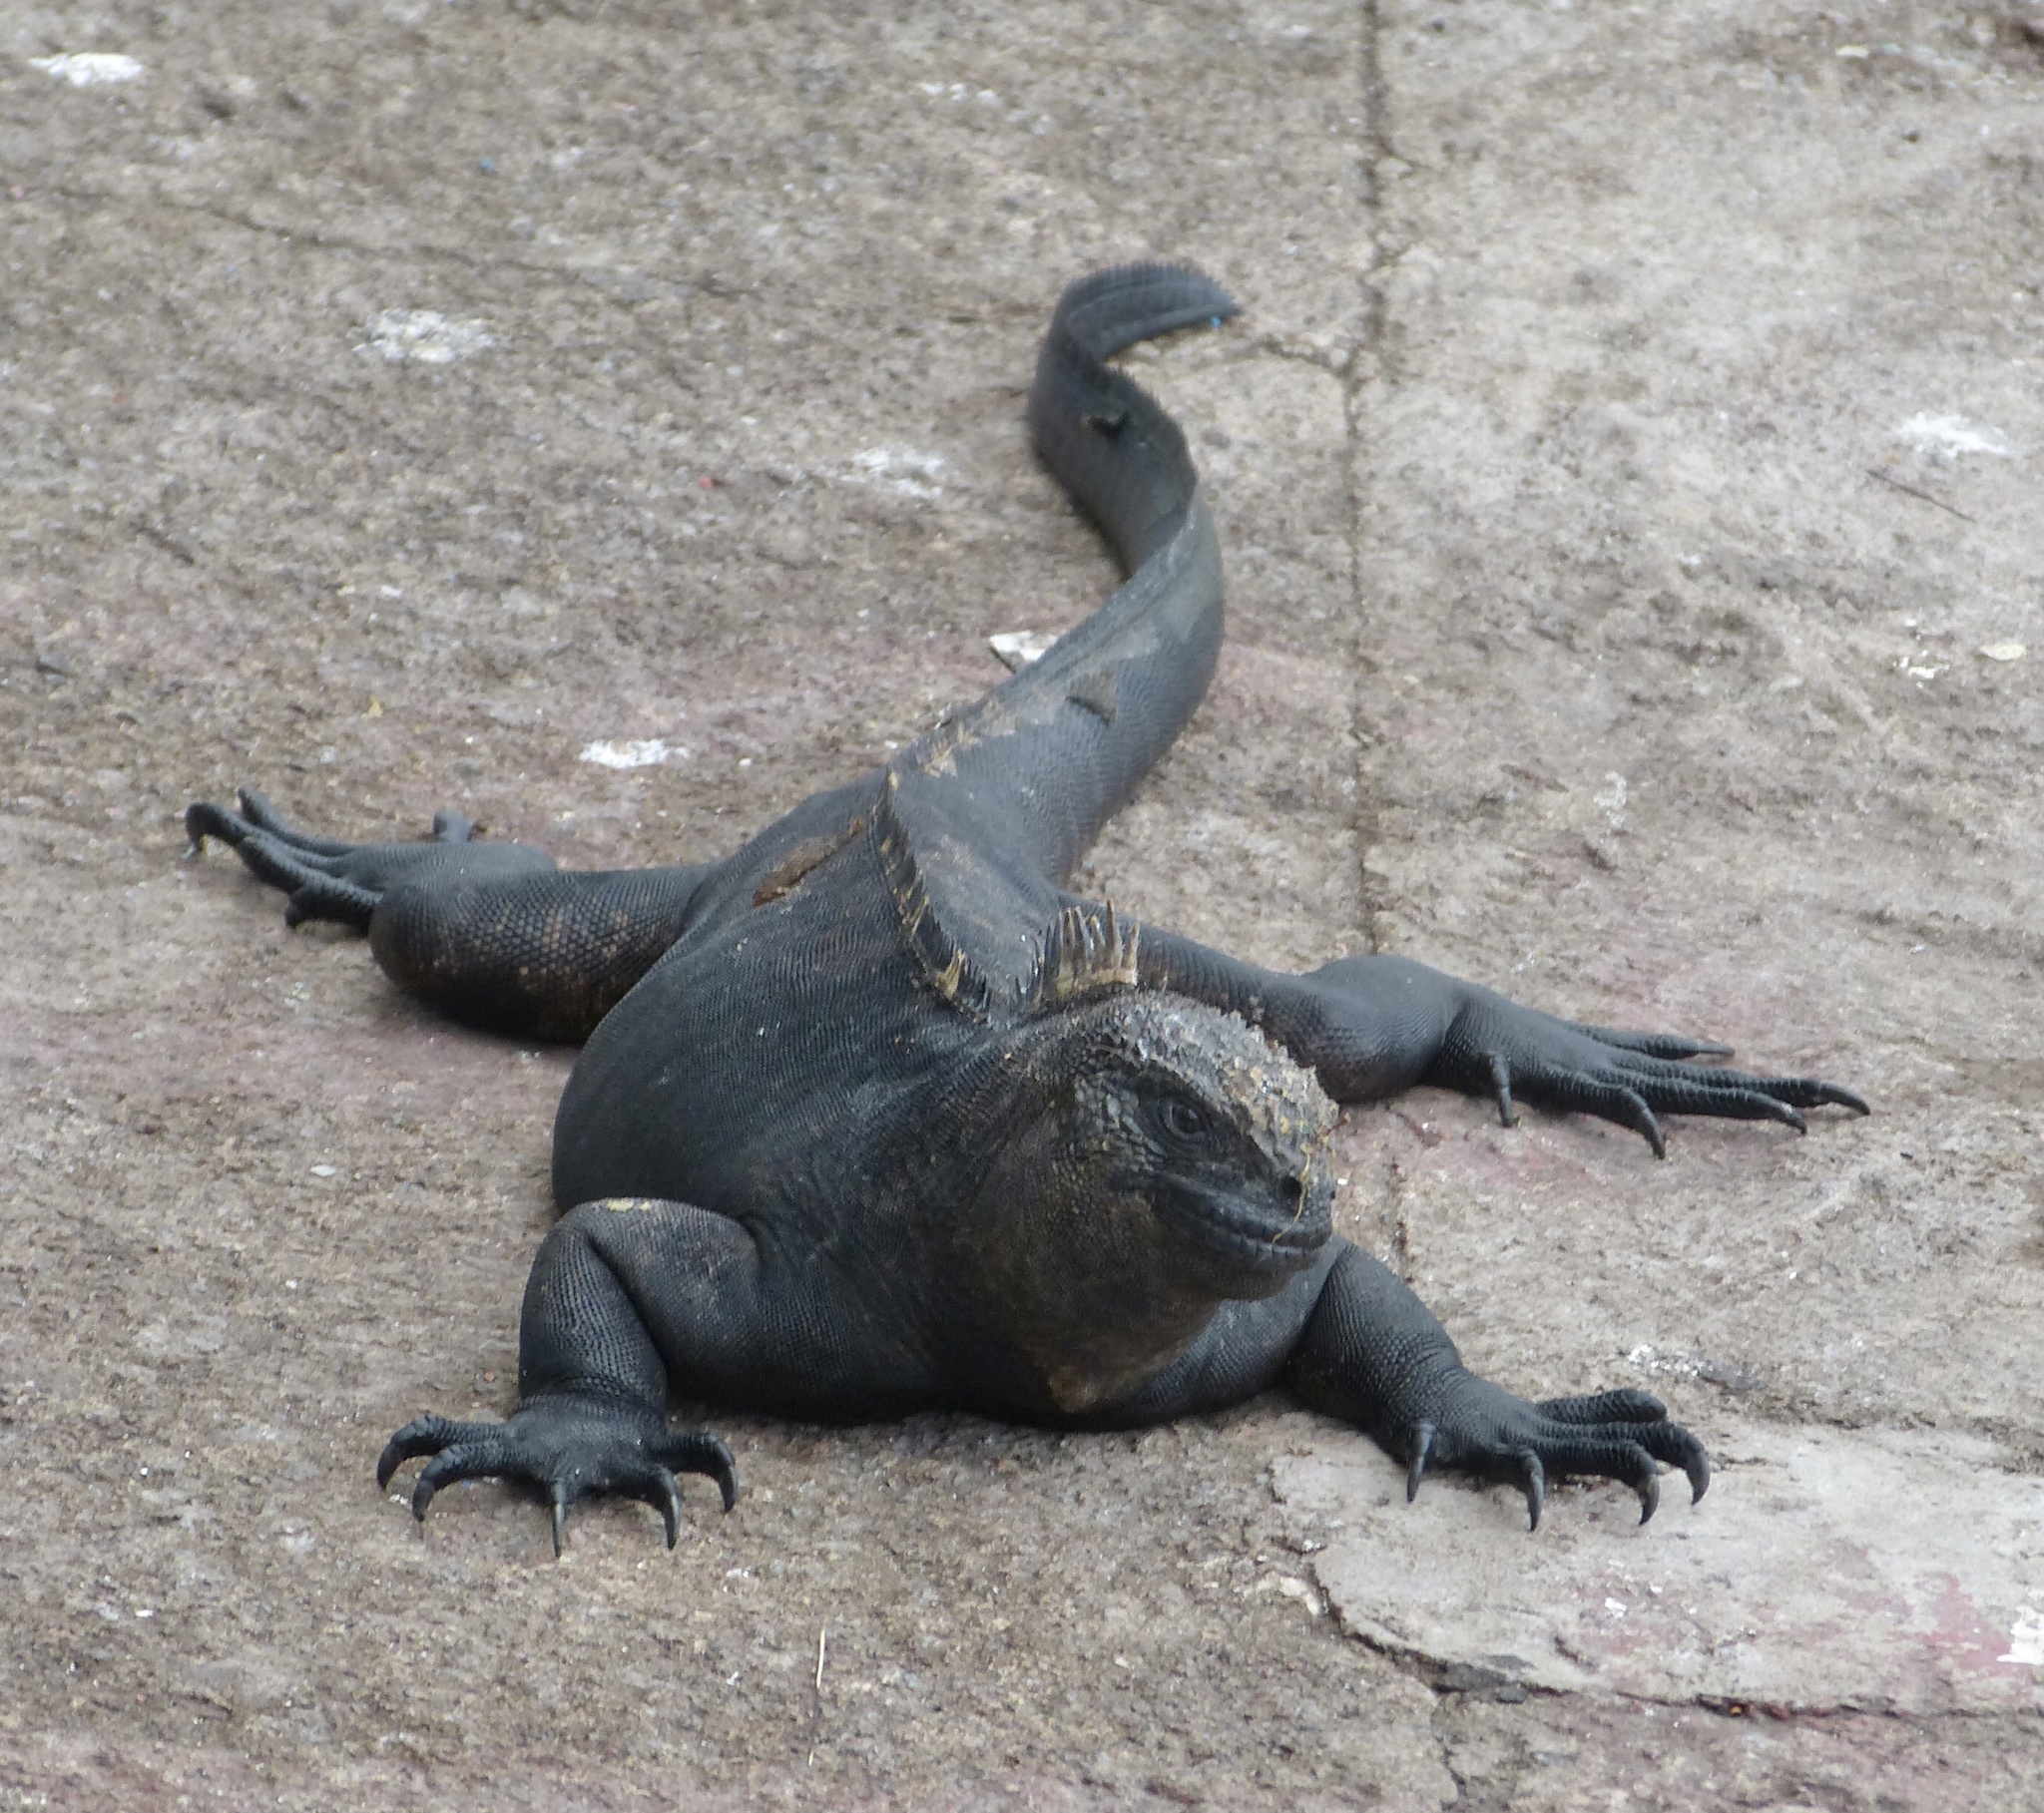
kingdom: Animalia
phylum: Chordata
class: Squamata
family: Iguanidae
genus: Amblyrhynchus
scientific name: Amblyrhynchus cristatus
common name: Marine iguana
